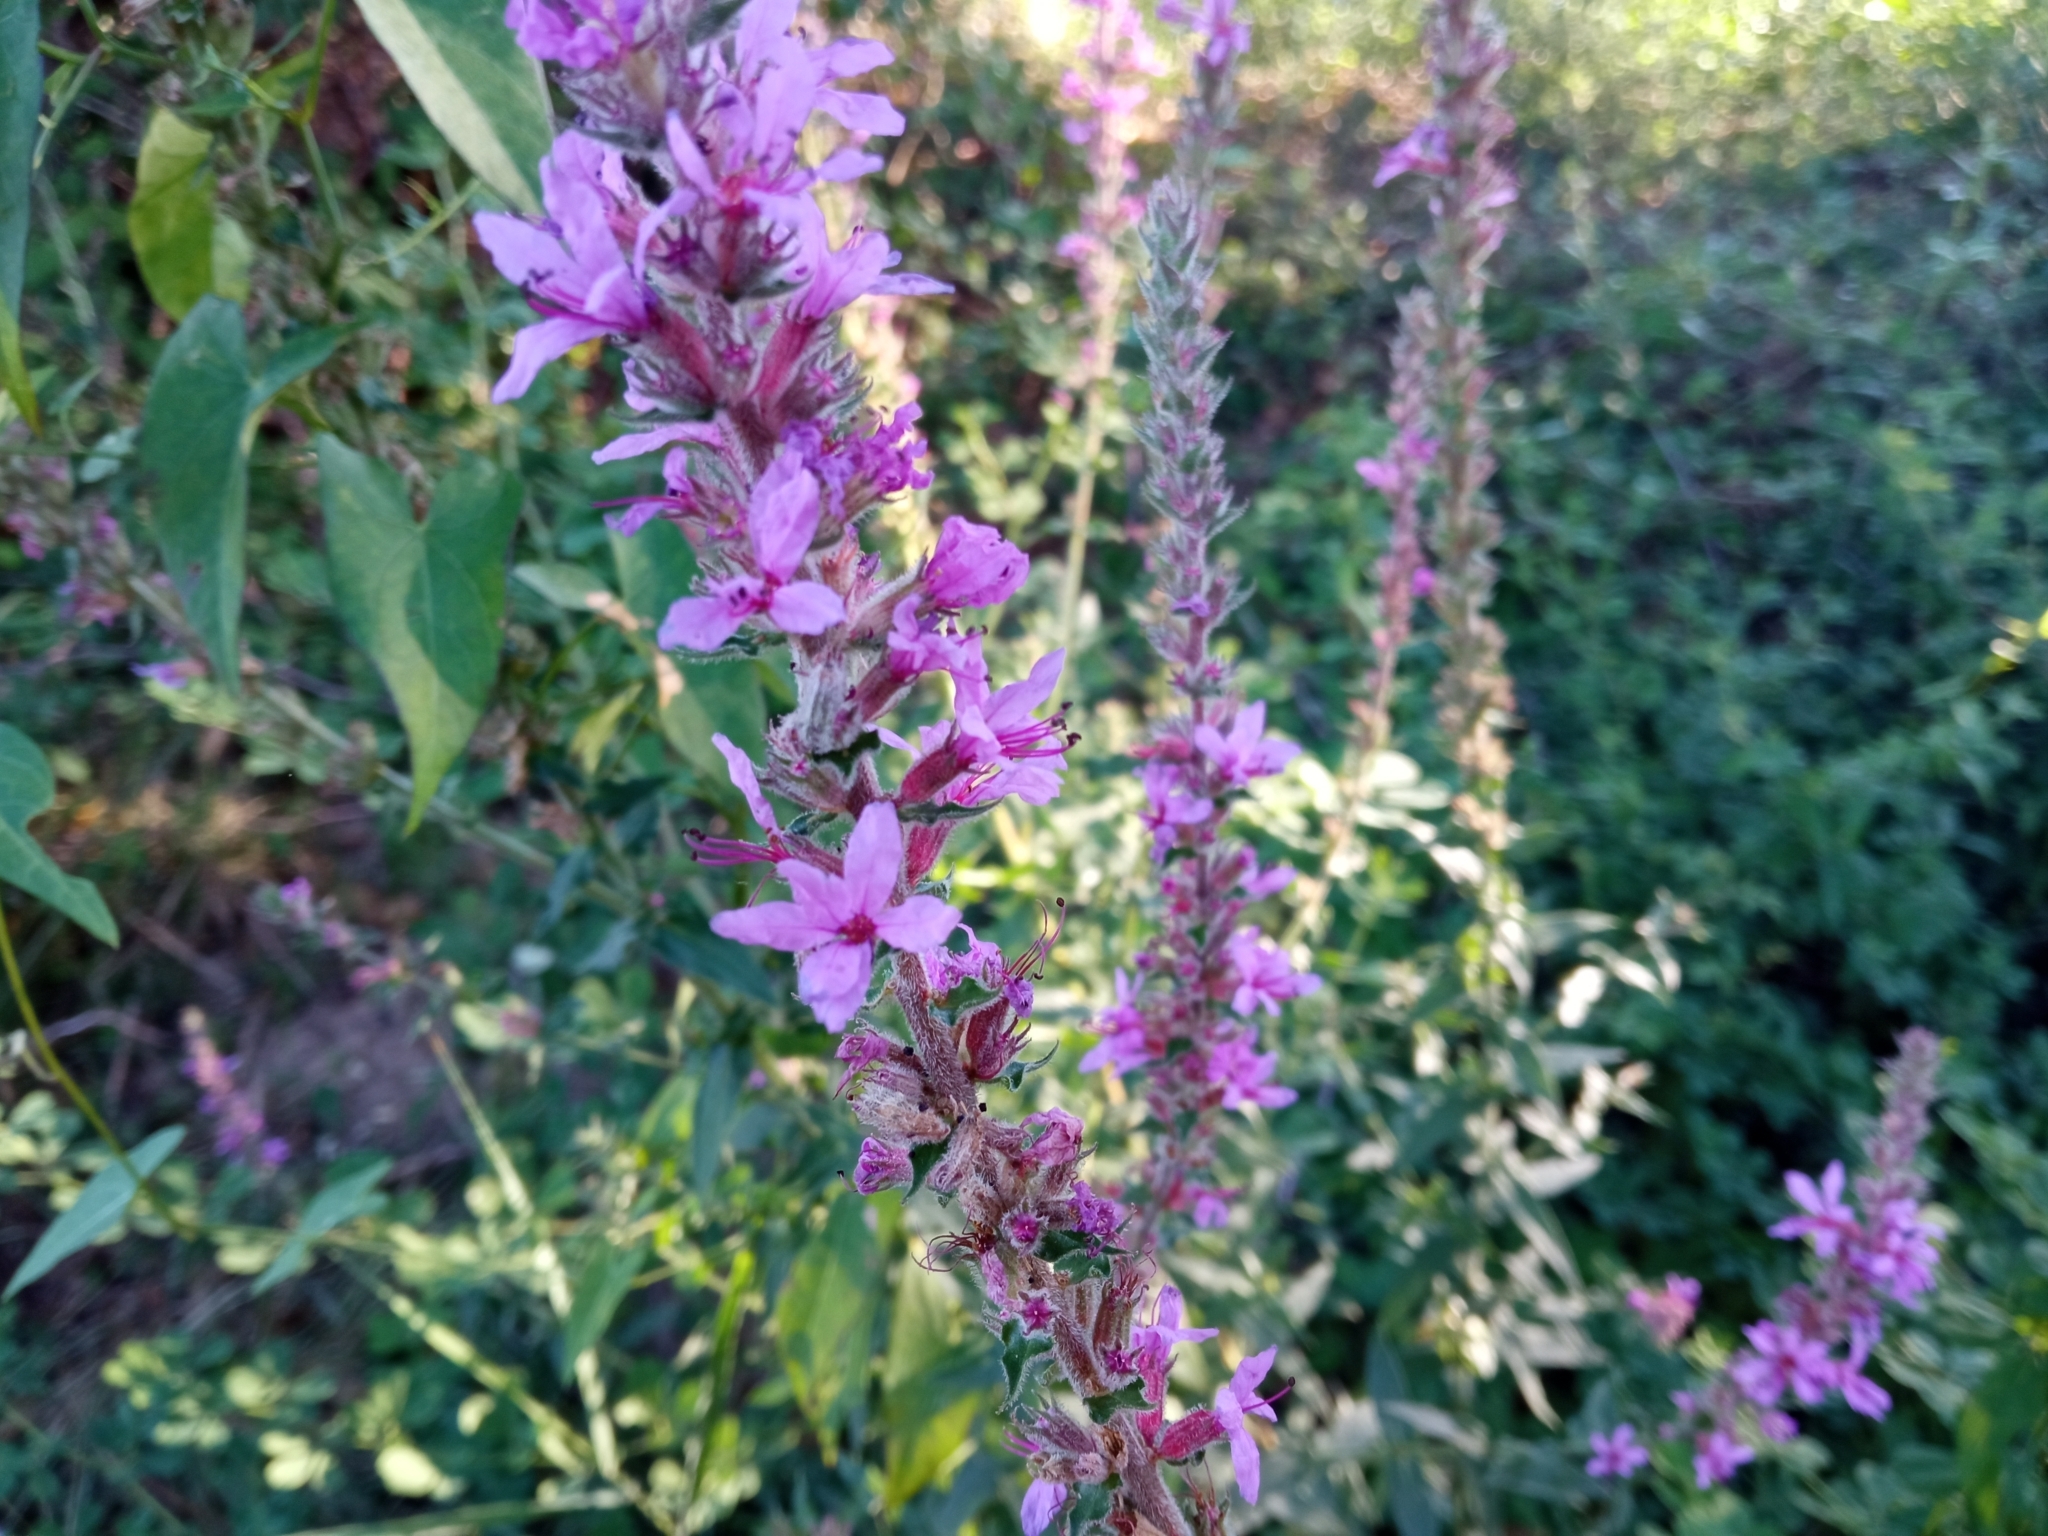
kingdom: Plantae
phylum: Tracheophyta
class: Magnoliopsida
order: Myrtales
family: Lythraceae
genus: Lythrum
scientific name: Lythrum salicaria
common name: Purple loosestrife
